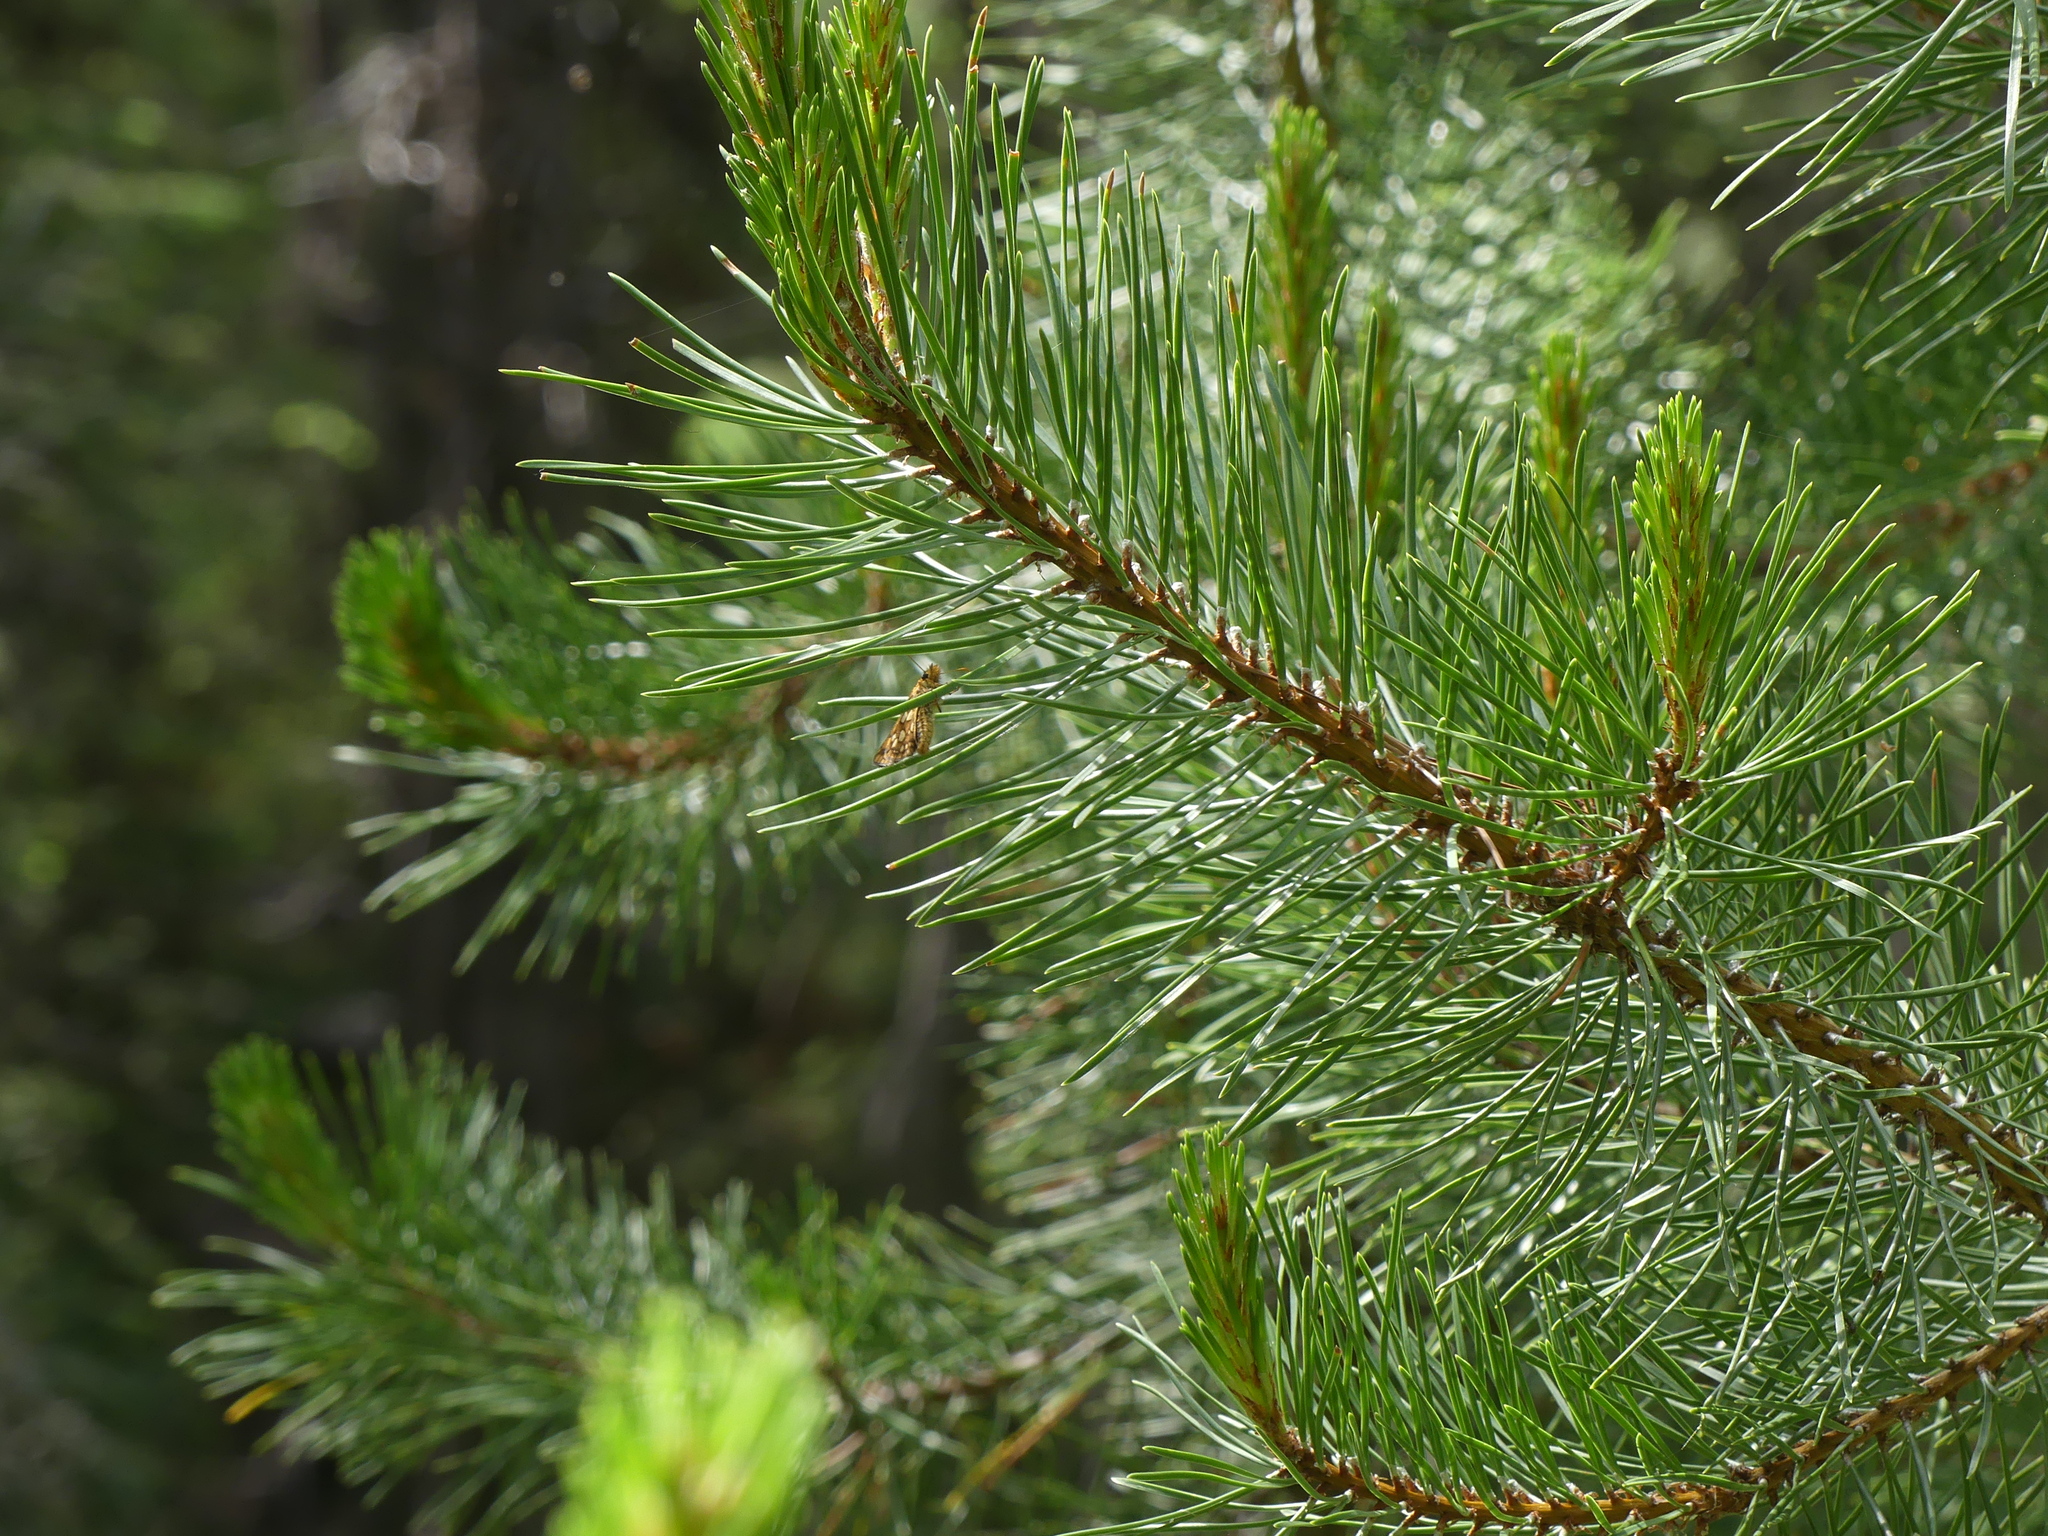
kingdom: Plantae
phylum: Tracheophyta
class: Pinopsida
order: Pinales
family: Pinaceae
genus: Pinus
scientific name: Pinus contorta
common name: Lodgepole pine
